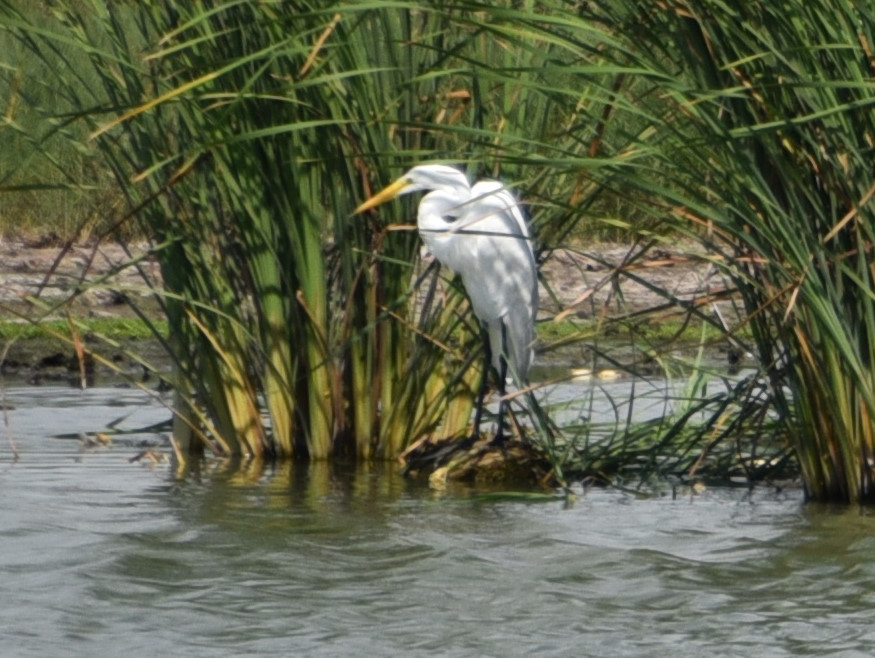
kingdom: Animalia
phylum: Chordata
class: Aves
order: Pelecaniformes
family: Ardeidae
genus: Ardea
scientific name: Ardea alba
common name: Great egret
